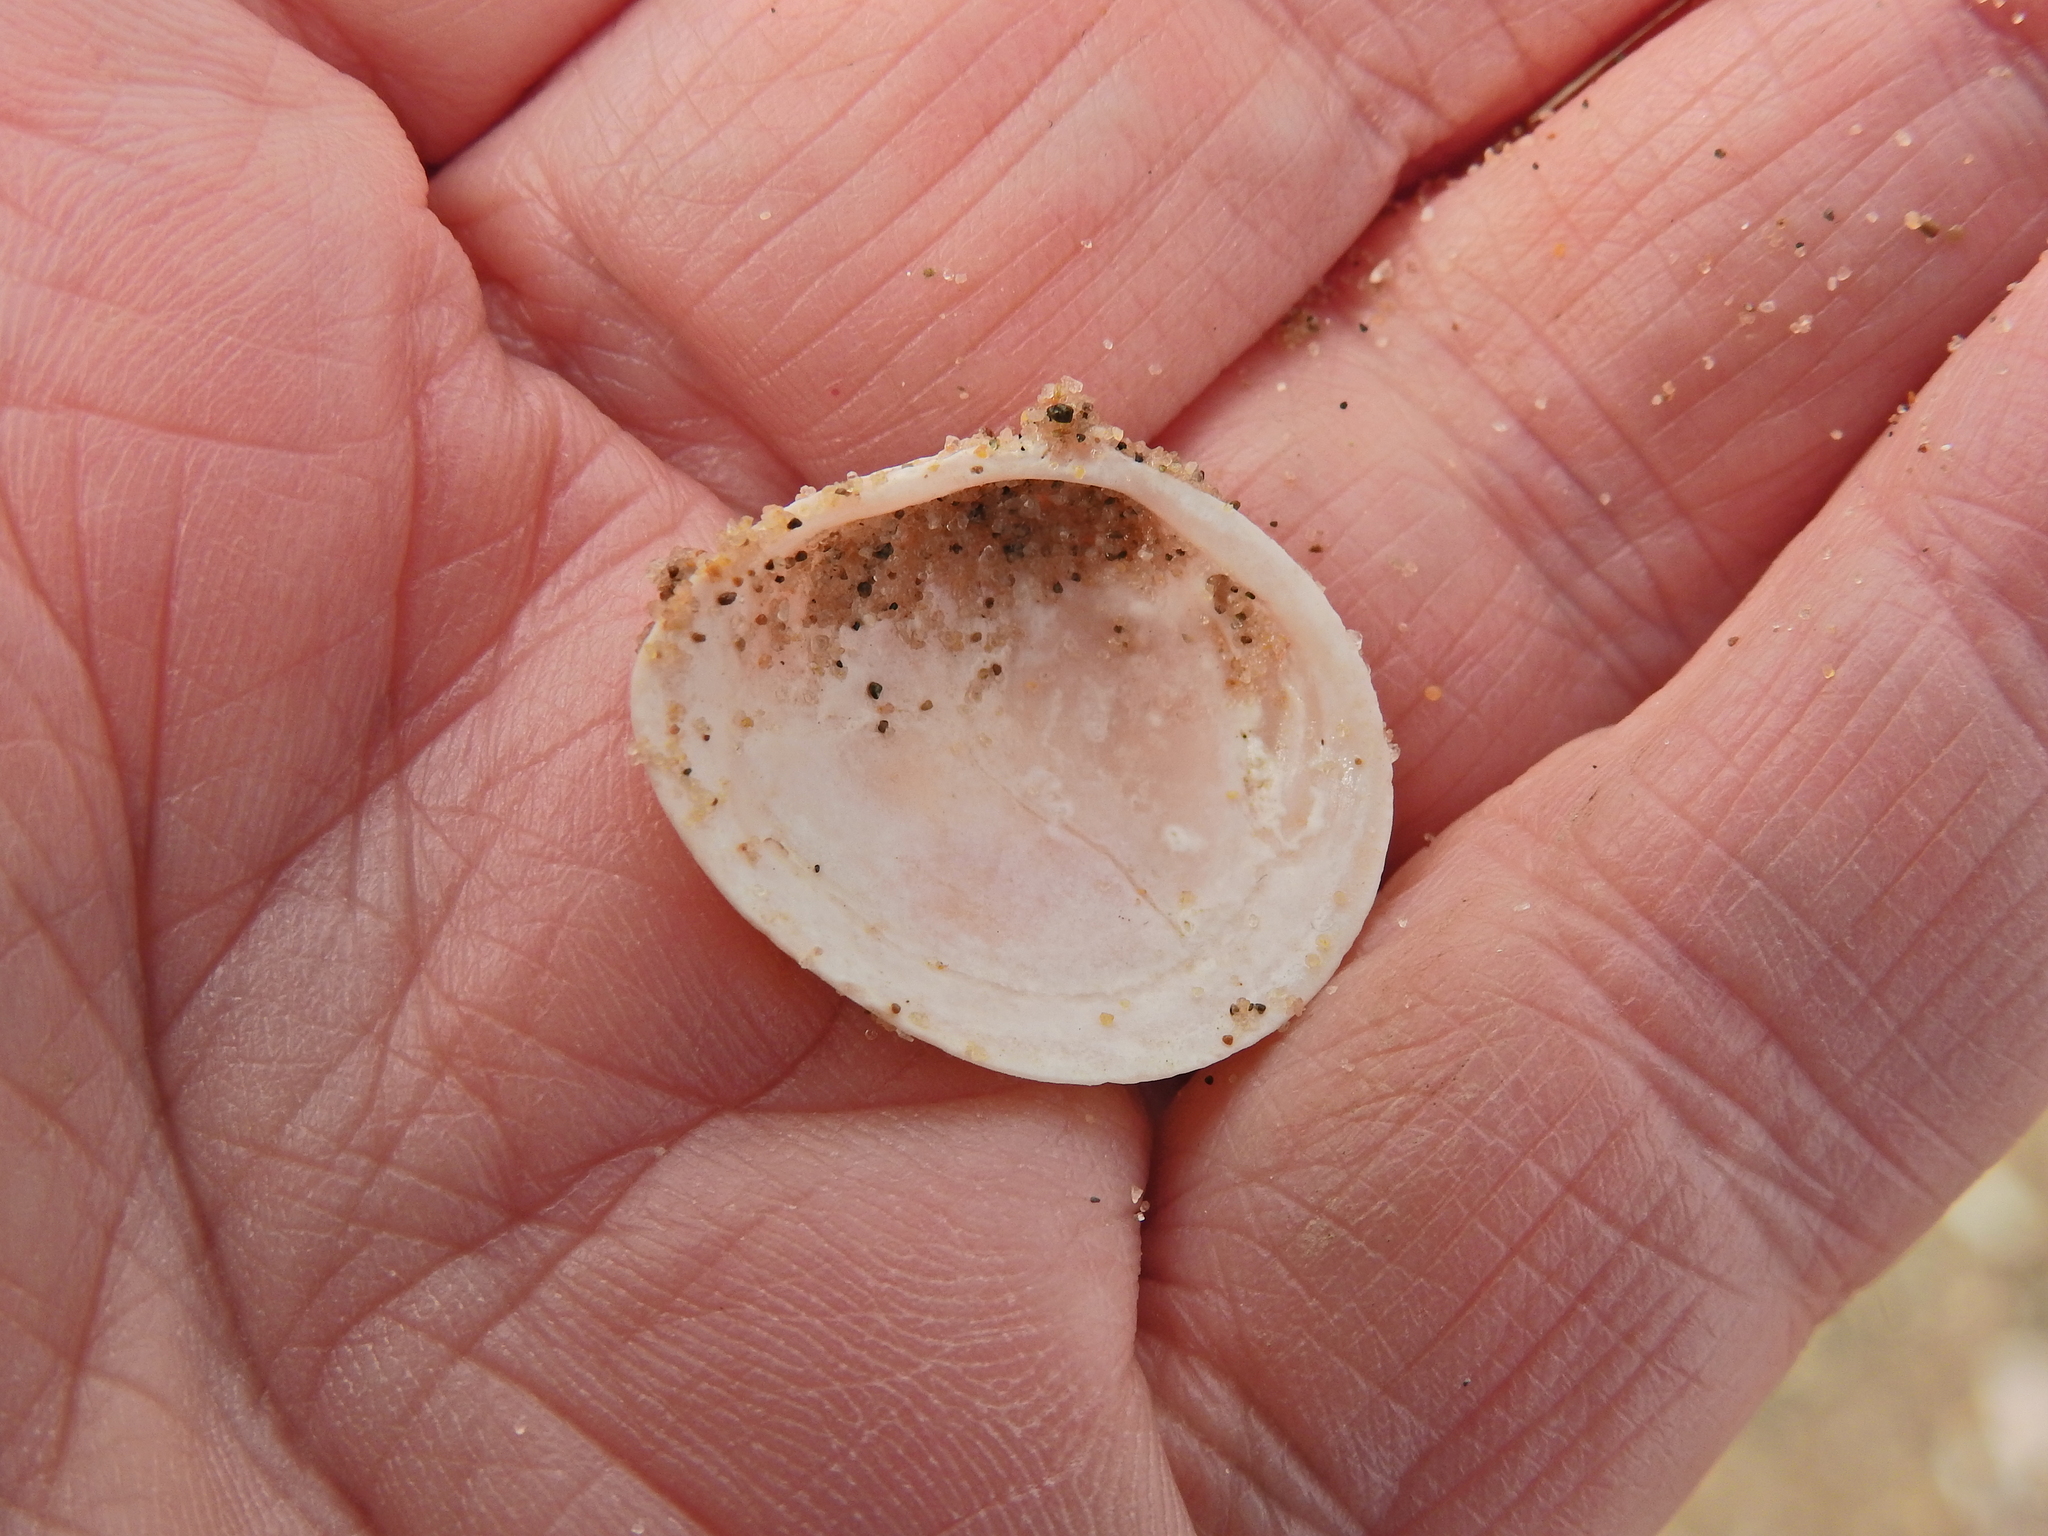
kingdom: Animalia
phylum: Mollusca
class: Bivalvia
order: Cardiida
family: Tellinidae
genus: Macoma
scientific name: Macoma balthica
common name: Baltic tellin
